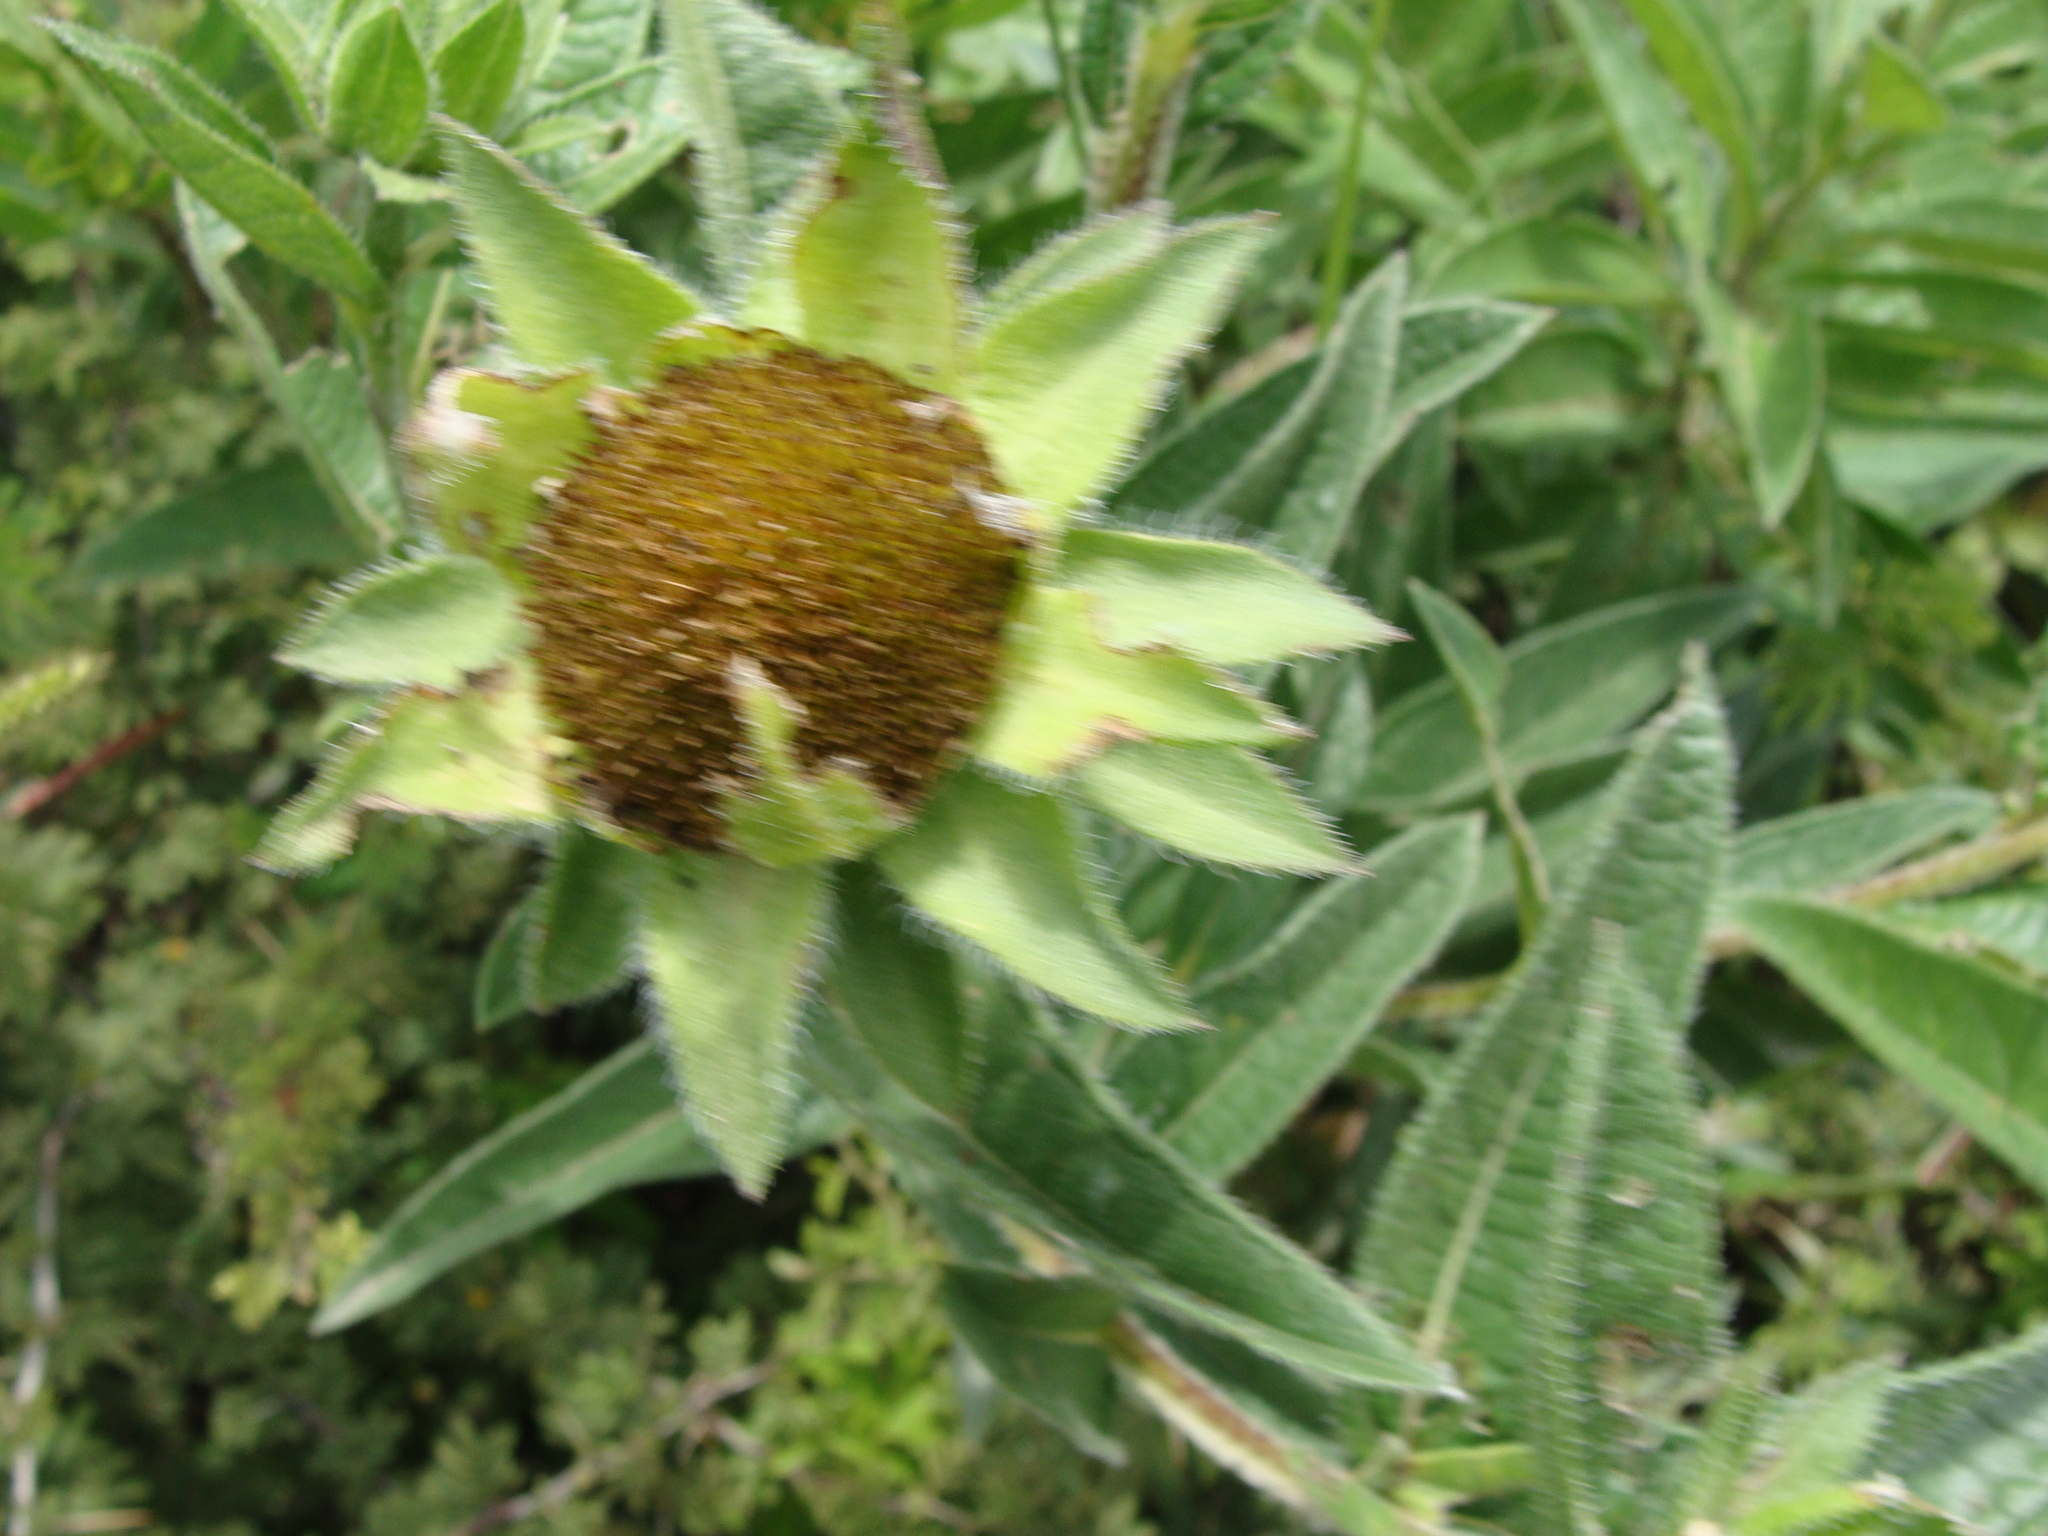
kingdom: Plantae
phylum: Tracheophyta
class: Magnoliopsida
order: Asterales
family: Asteraceae
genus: Aldama
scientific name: Aldama pachycephala
